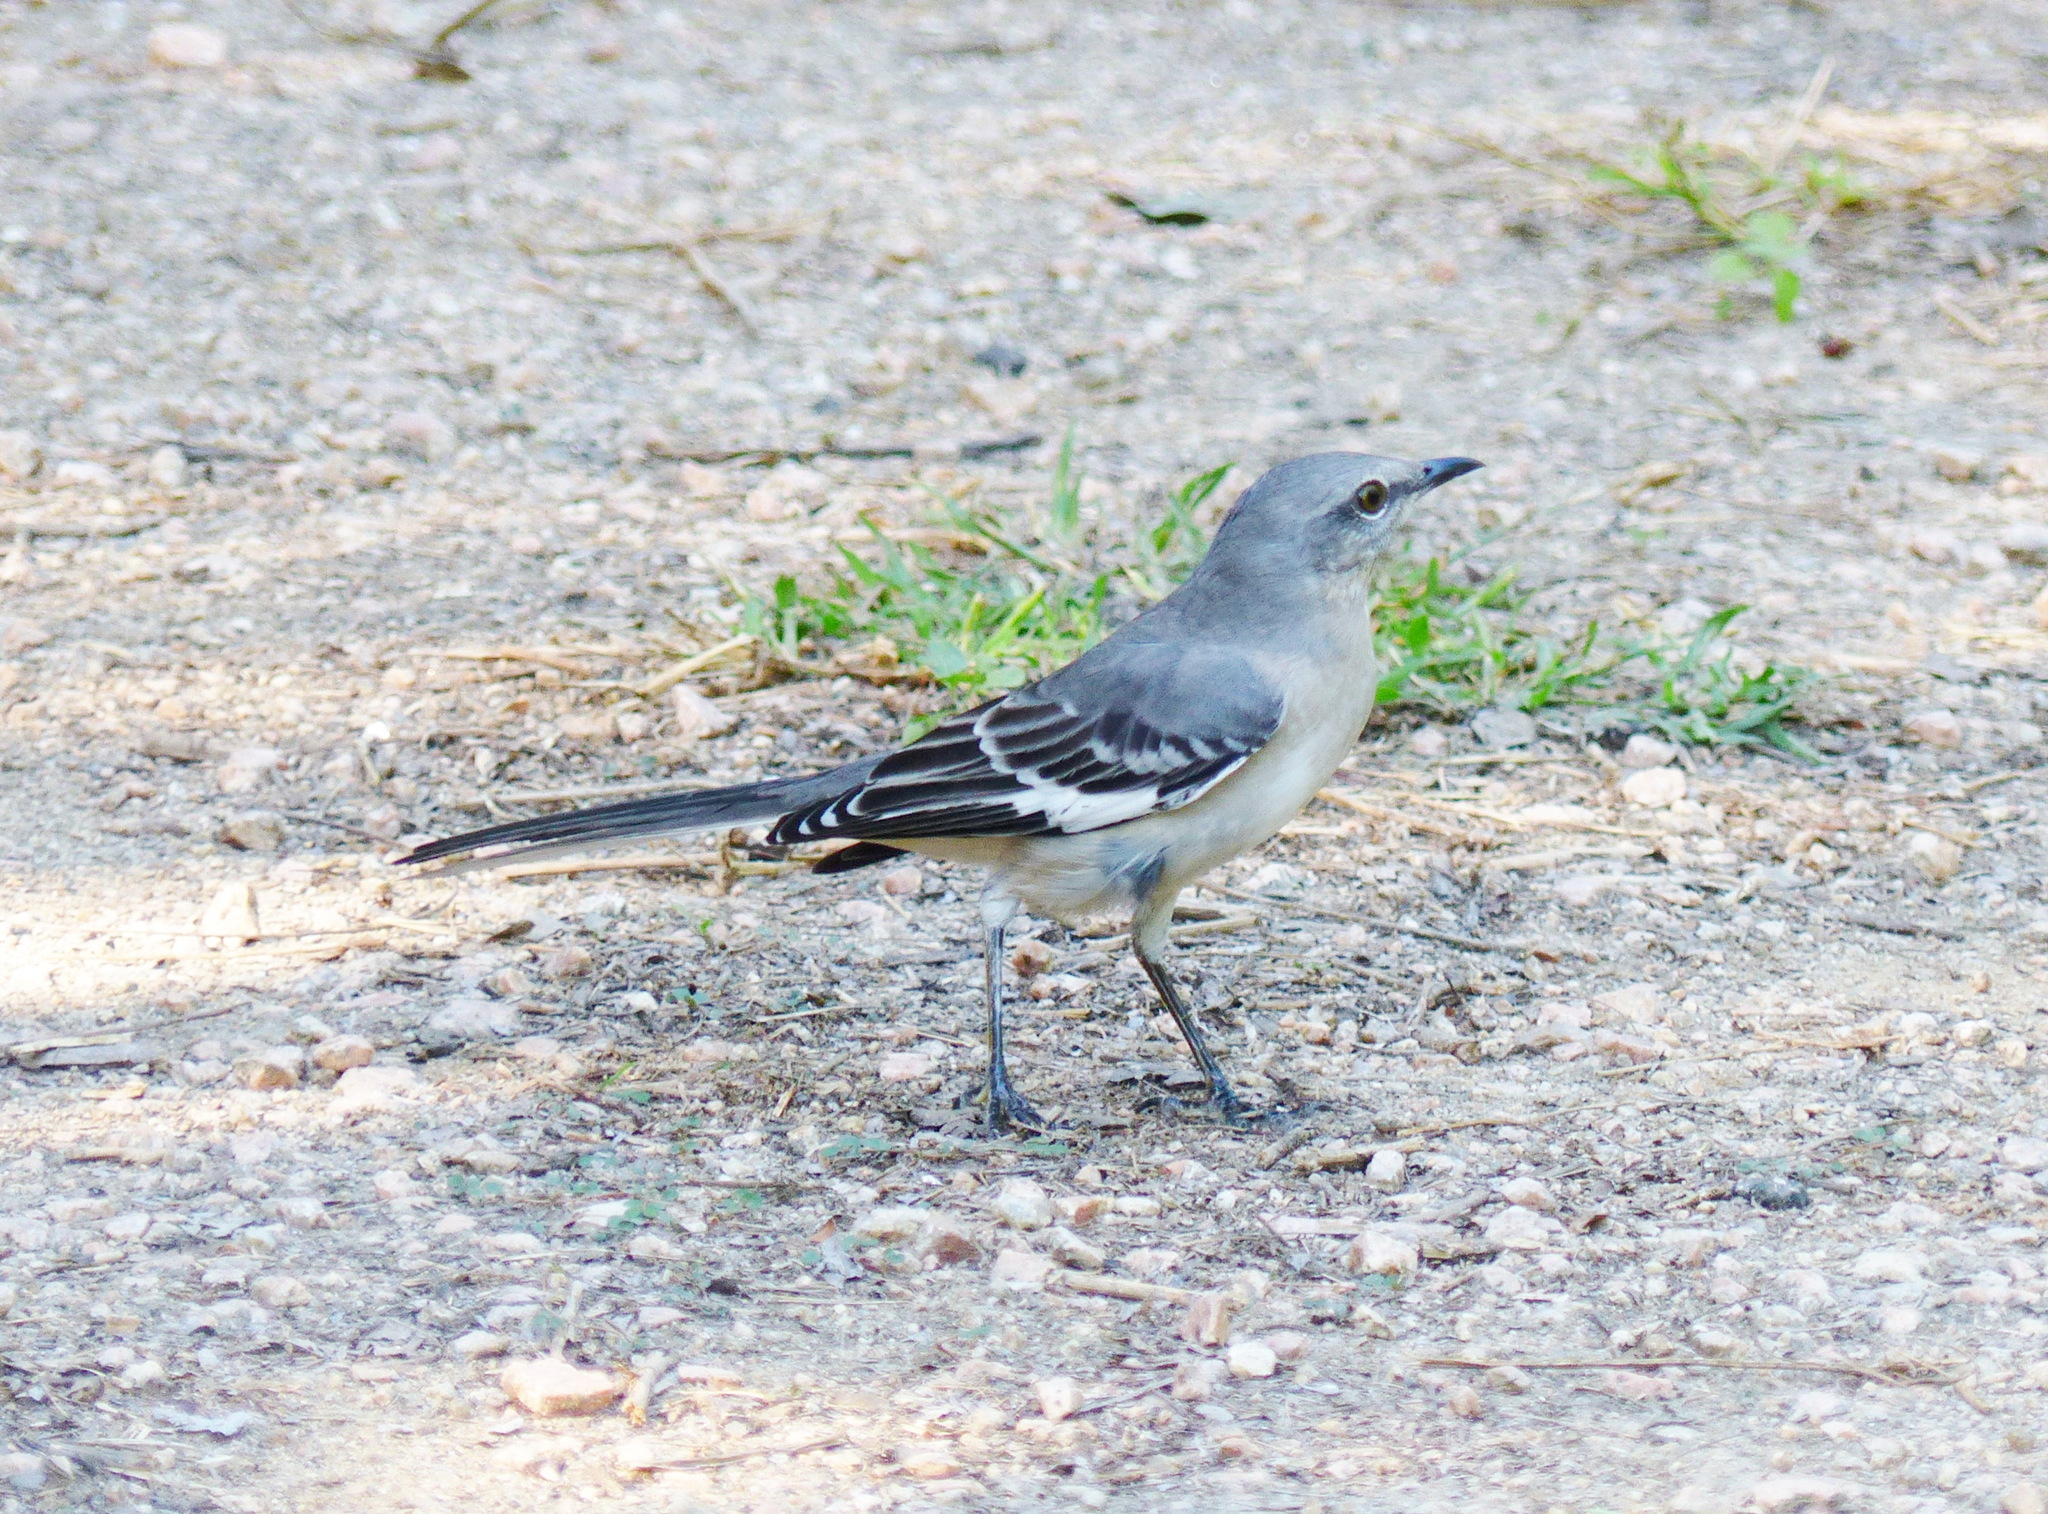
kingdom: Animalia
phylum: Chordata
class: Aves
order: Passeriformes
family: Mimidae
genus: Mimus
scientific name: Mimus polyglottos
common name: Northern mockingbird
